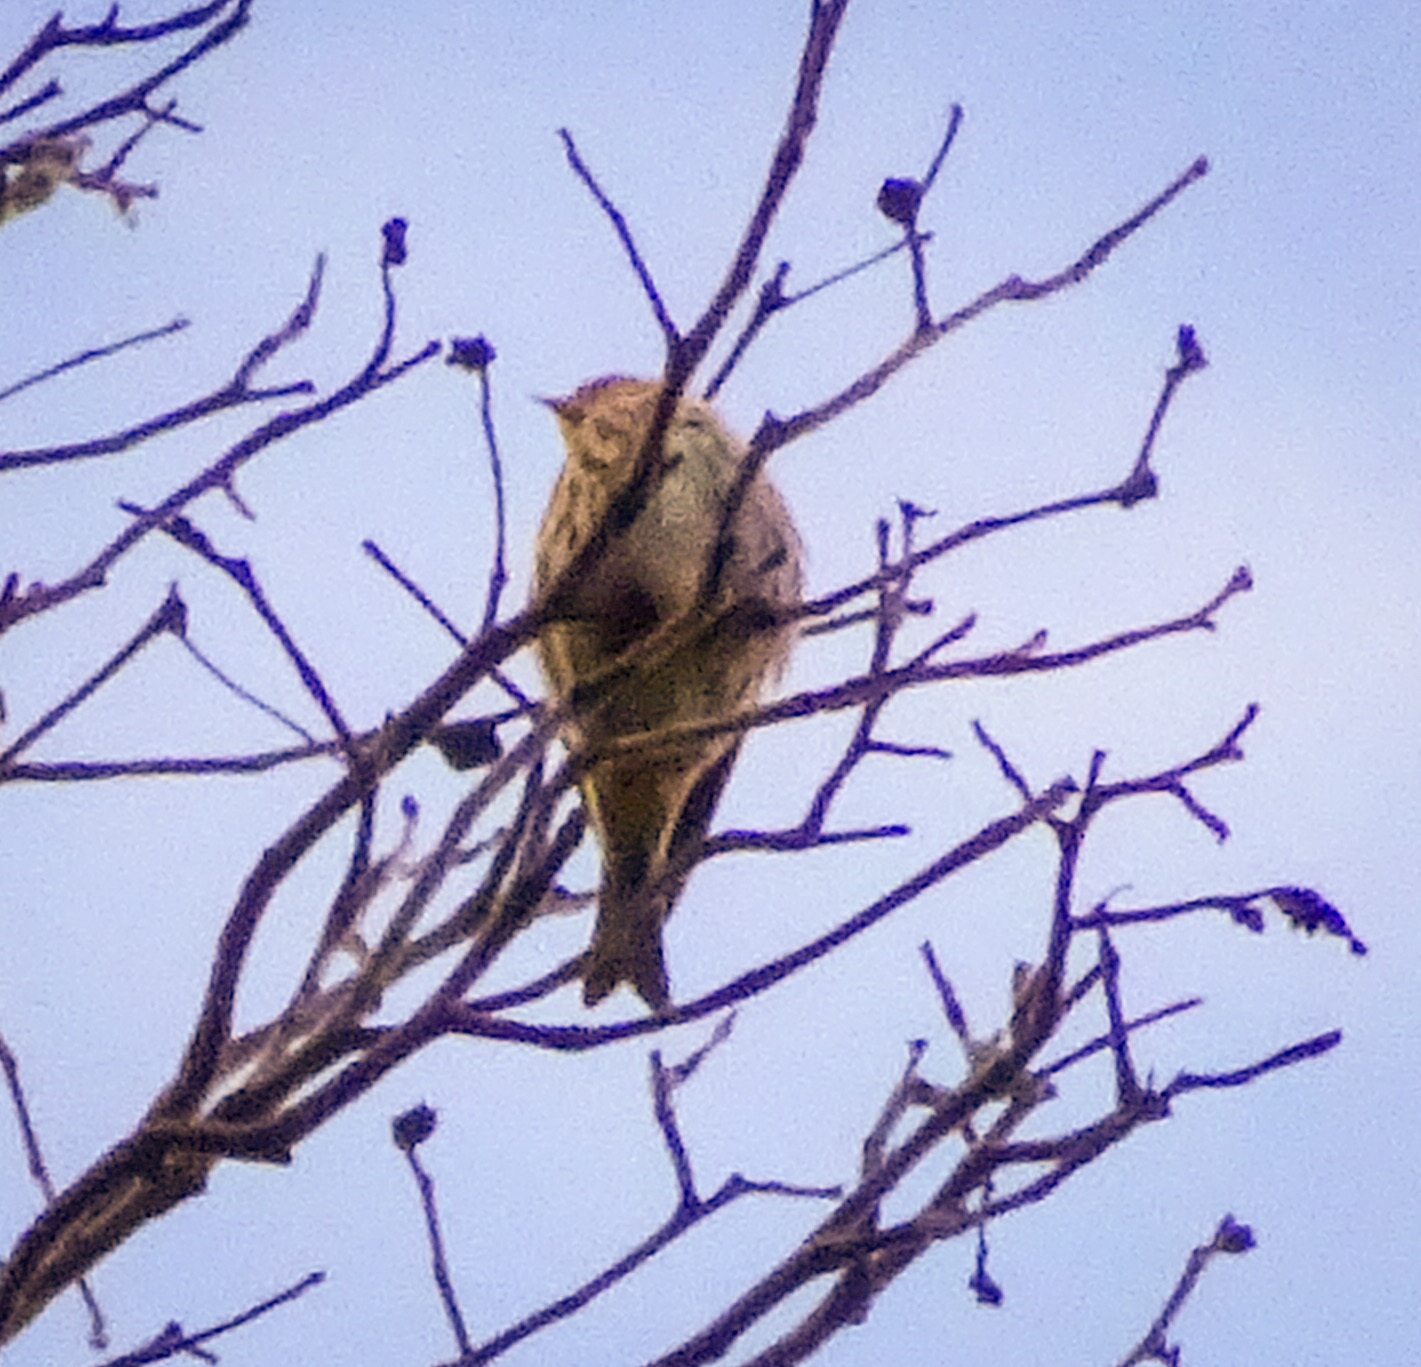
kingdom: Animalia
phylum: Chordata
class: Aves
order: Passeriformes
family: Fringillidae
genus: Spinus
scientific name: Spinus pinus
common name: Pine siskin
